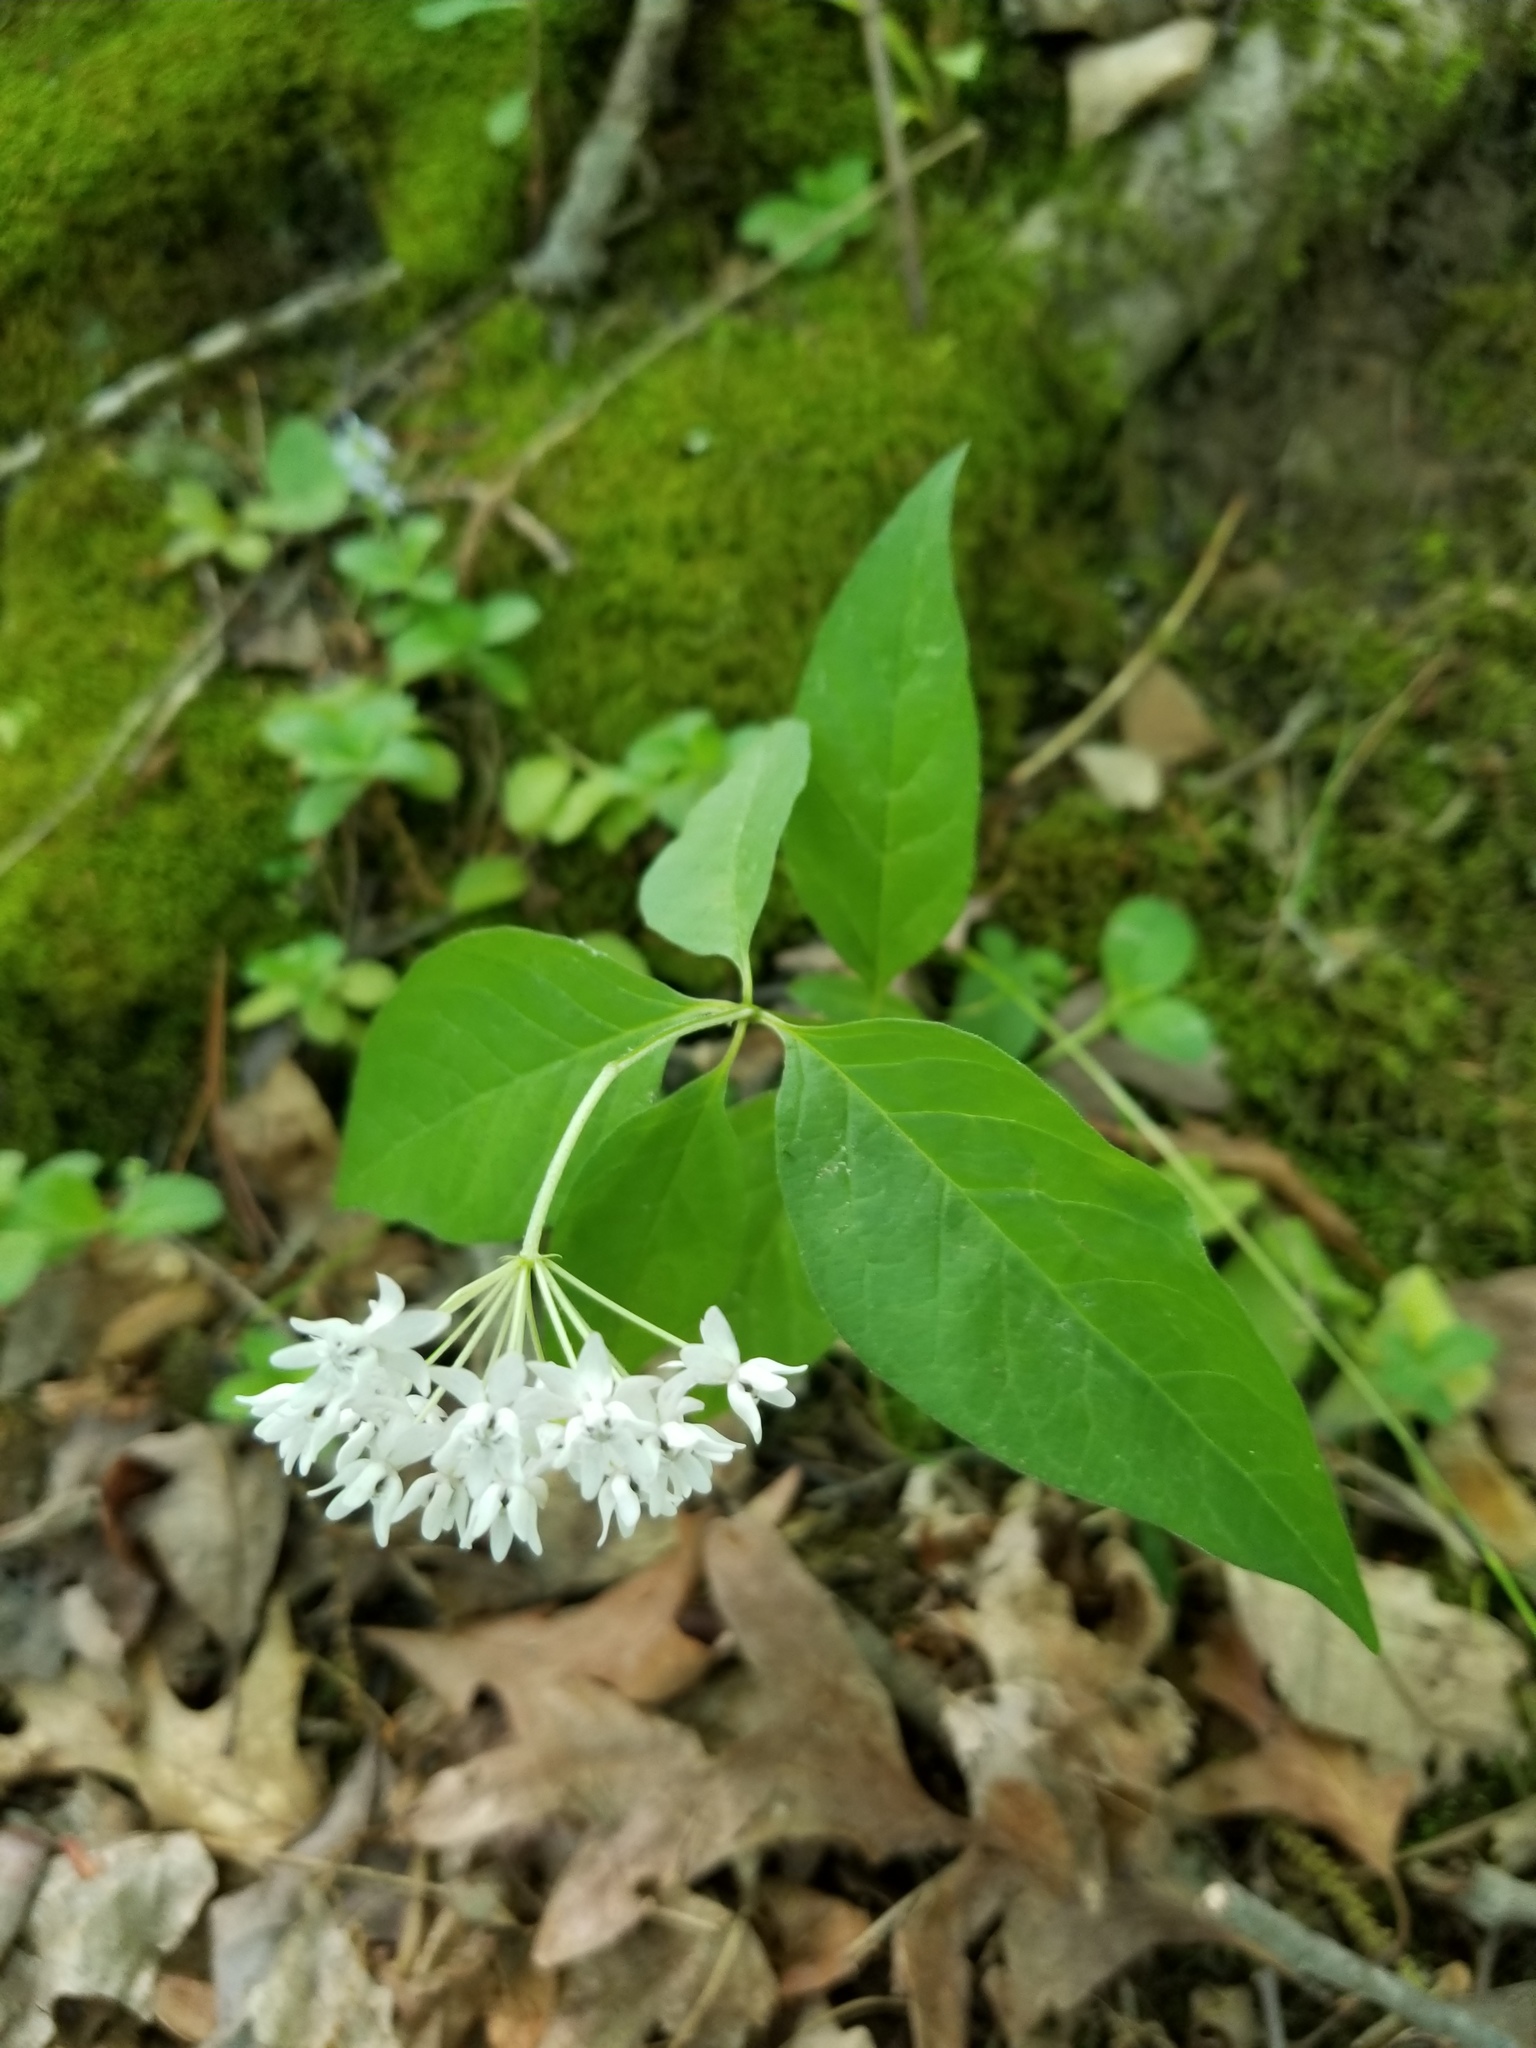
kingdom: Plantae
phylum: Tracheophyta
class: Magnoliopsida
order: Gentianales
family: Apocynaceae
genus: Asclepias
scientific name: Asclepias quadrifolia
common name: Whorled milkweed
